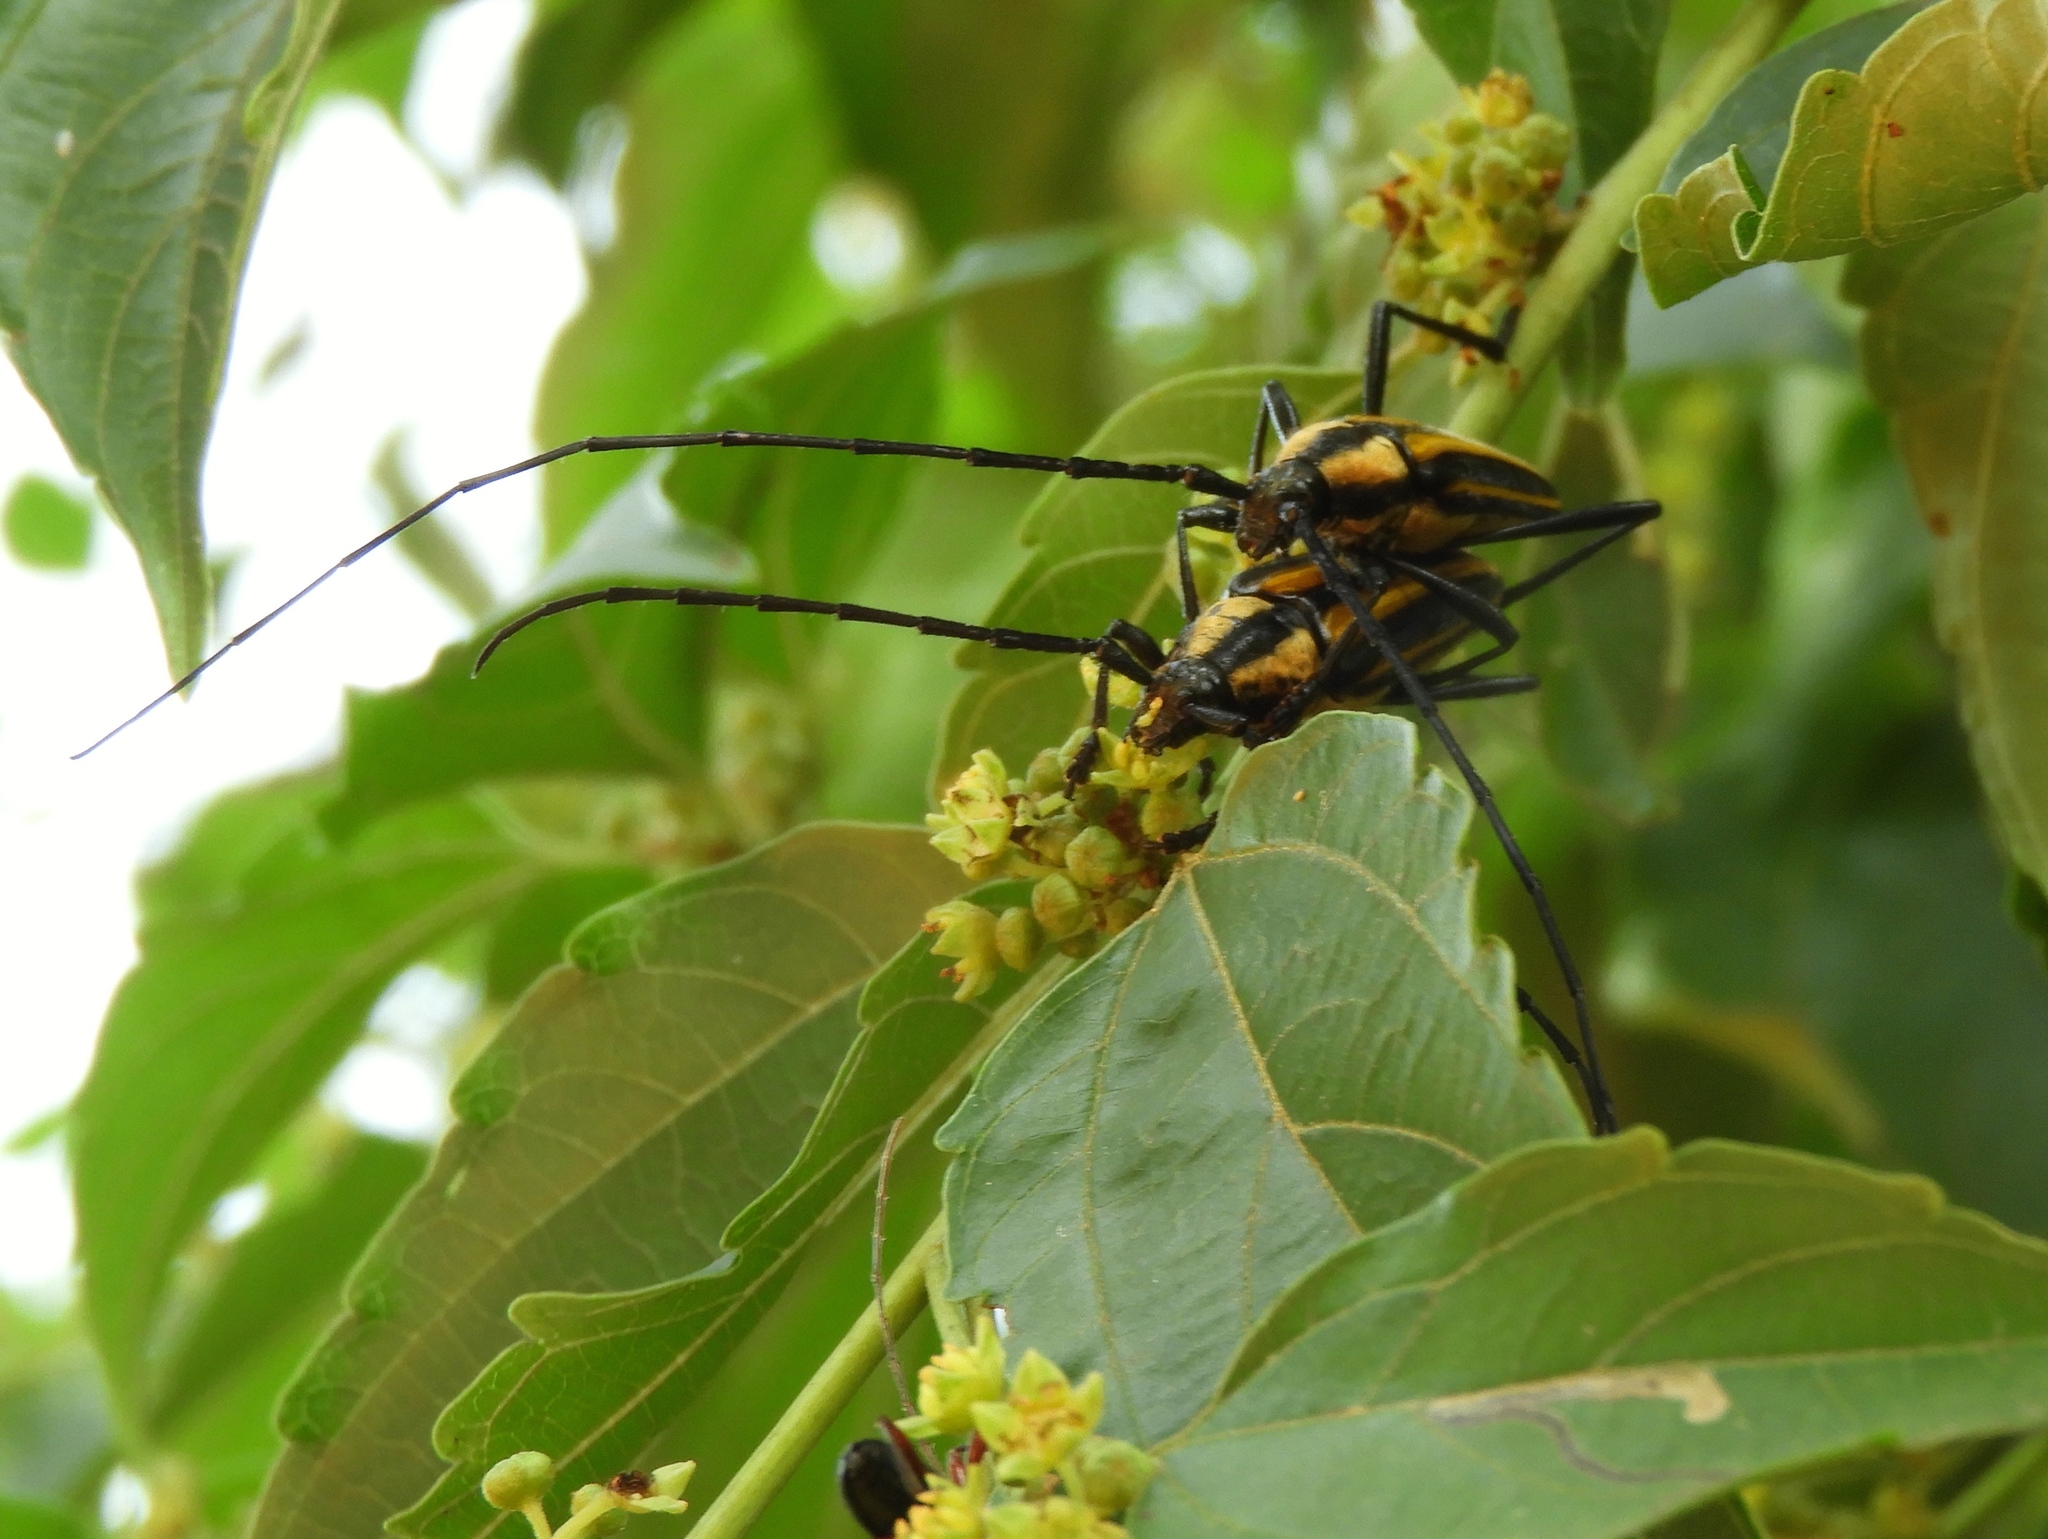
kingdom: Animalia
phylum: Arthropoda
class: Insecta
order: Coleoptera
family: Cerambycidae
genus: Sphaenothecus
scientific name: Sphaenothecus argenteus
